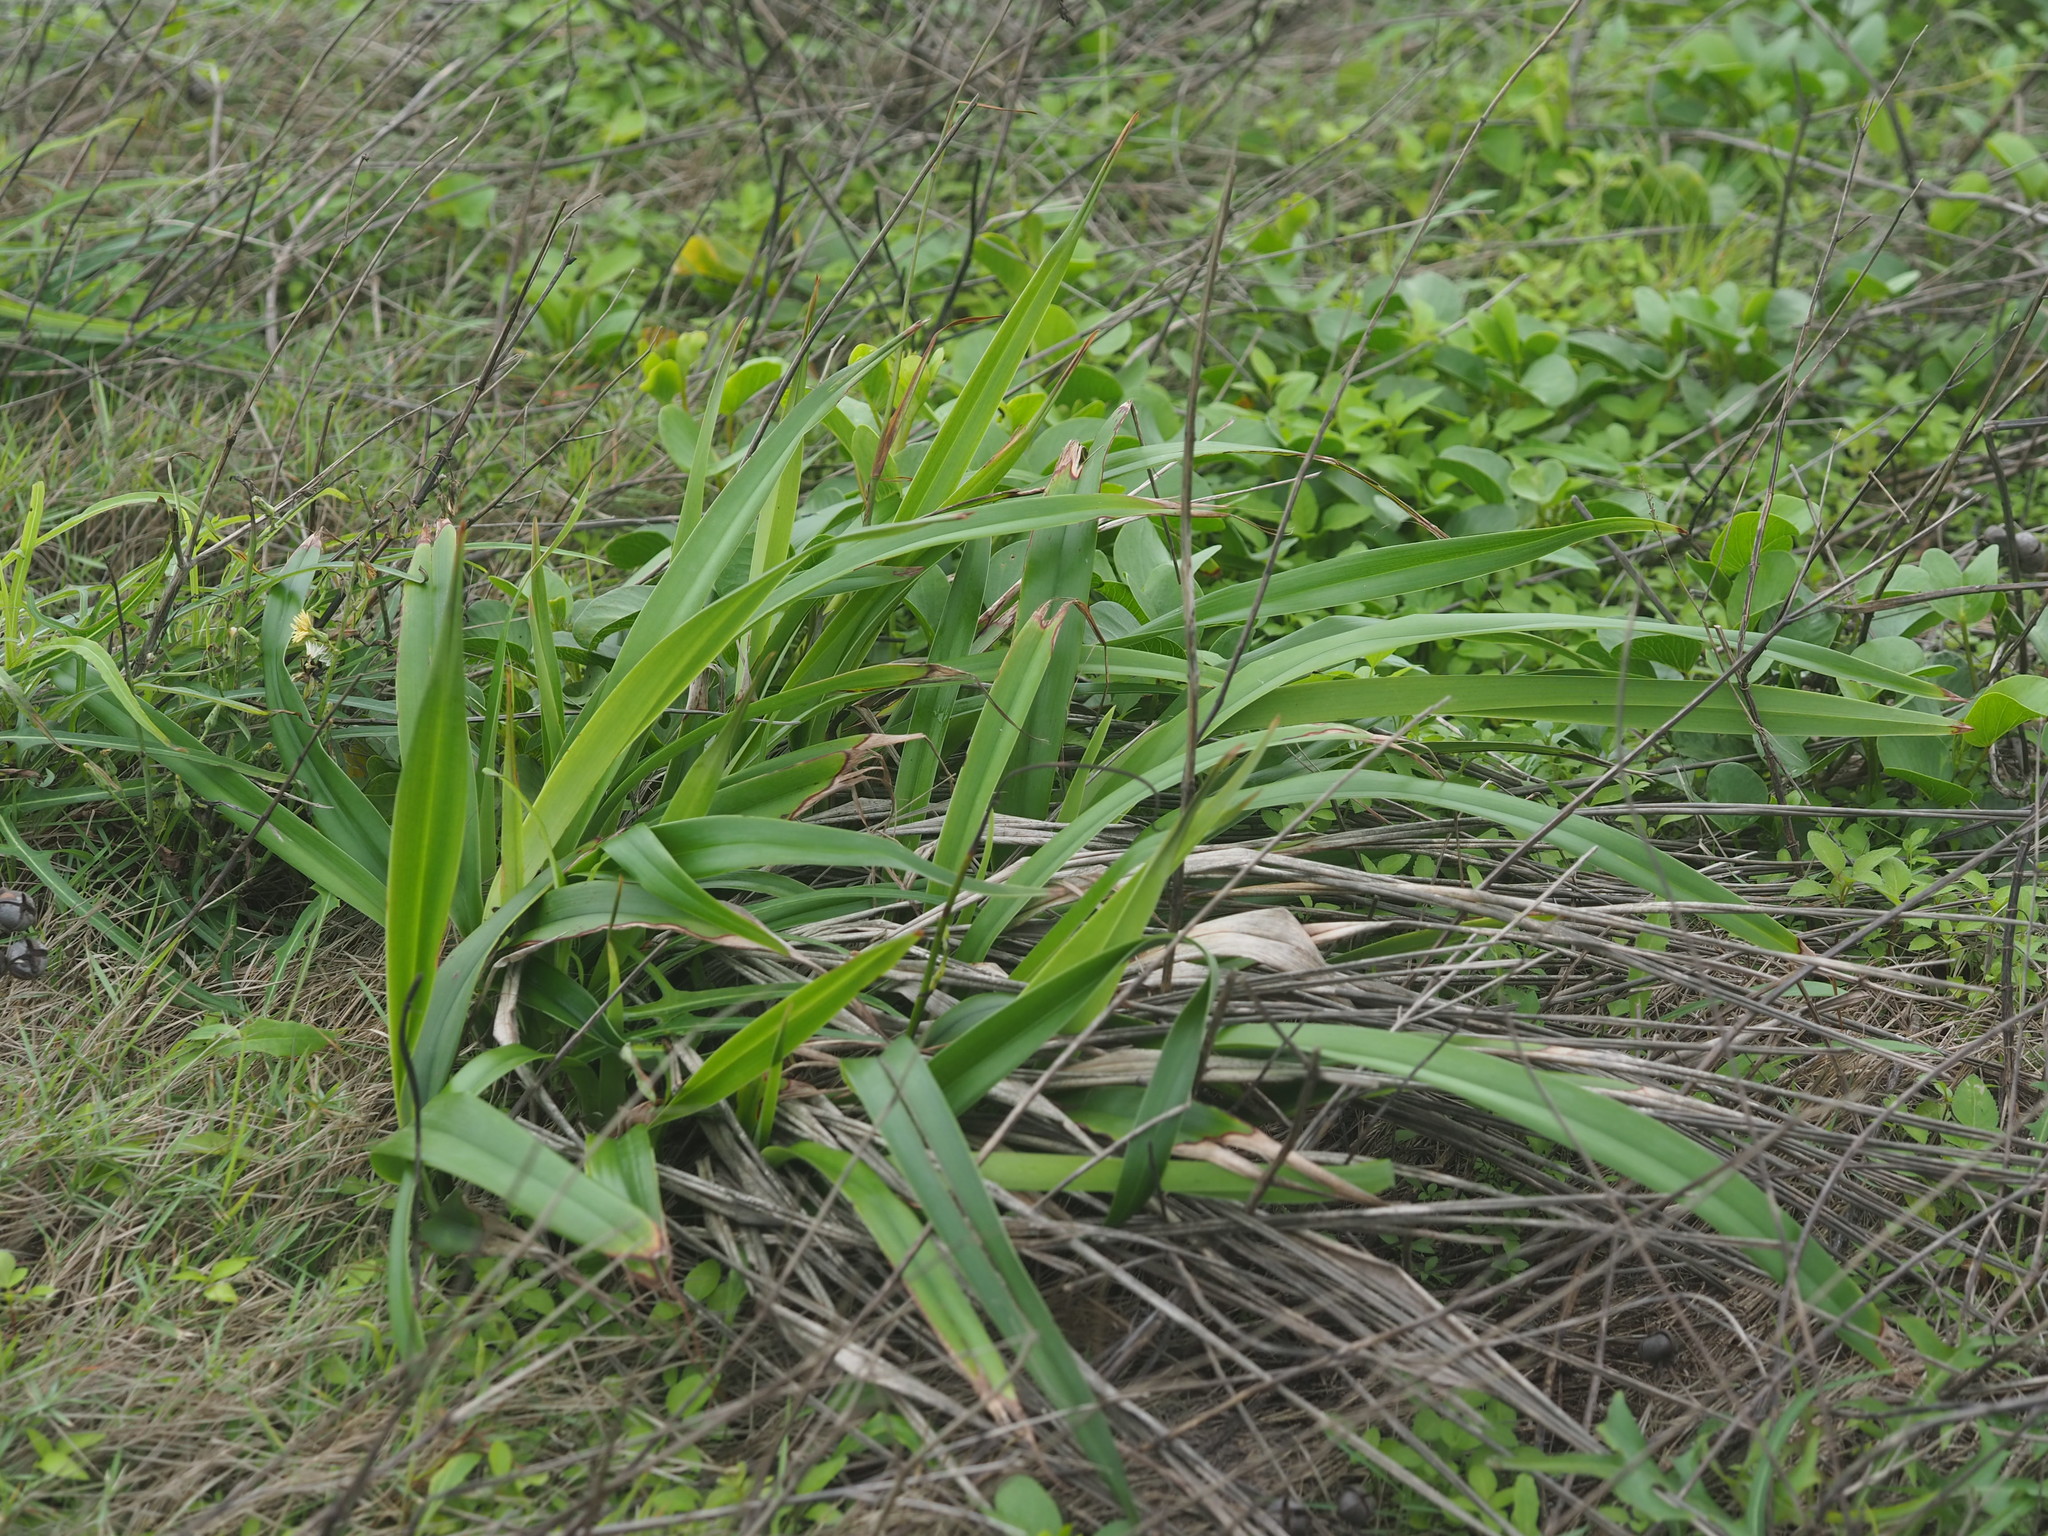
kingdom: Plantae
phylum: Tracheophyta
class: Liliopsida
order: Asparagales
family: Asphodelaceae
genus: Dianella
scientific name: Dianella ensifolia
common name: New zealand lilyplant
